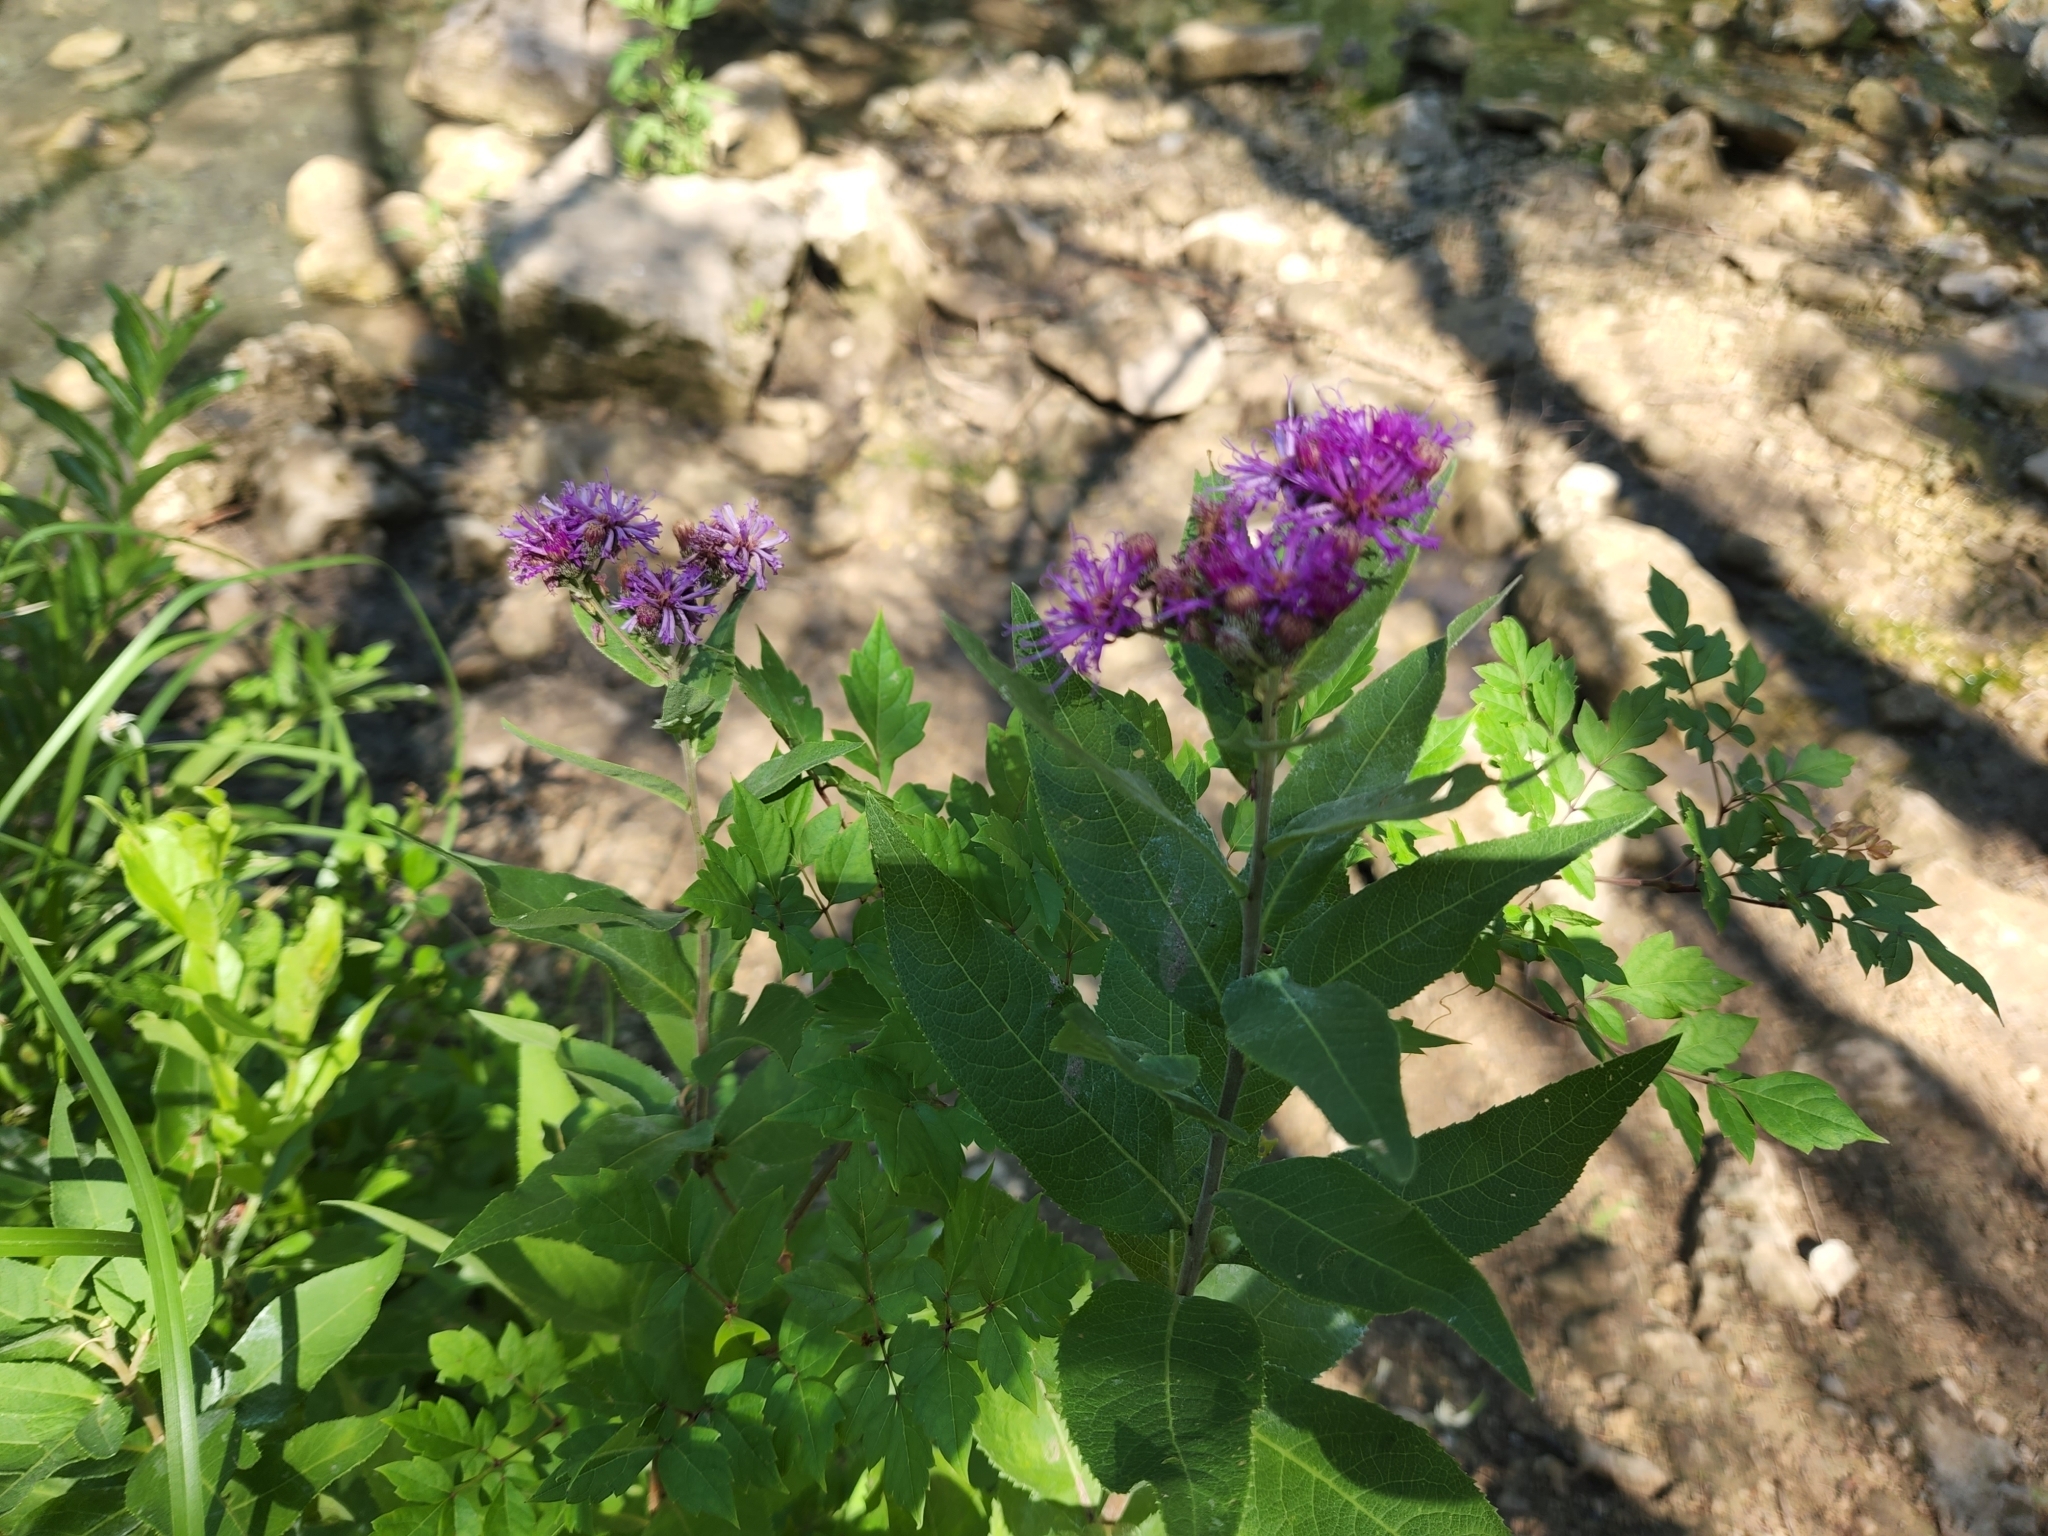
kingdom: Plantae
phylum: Tracheophyta
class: Magnoliopsida
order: Asterales
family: Asteraceae
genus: Vernonia
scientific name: Vernonia baldwinii
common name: Western ironweed
